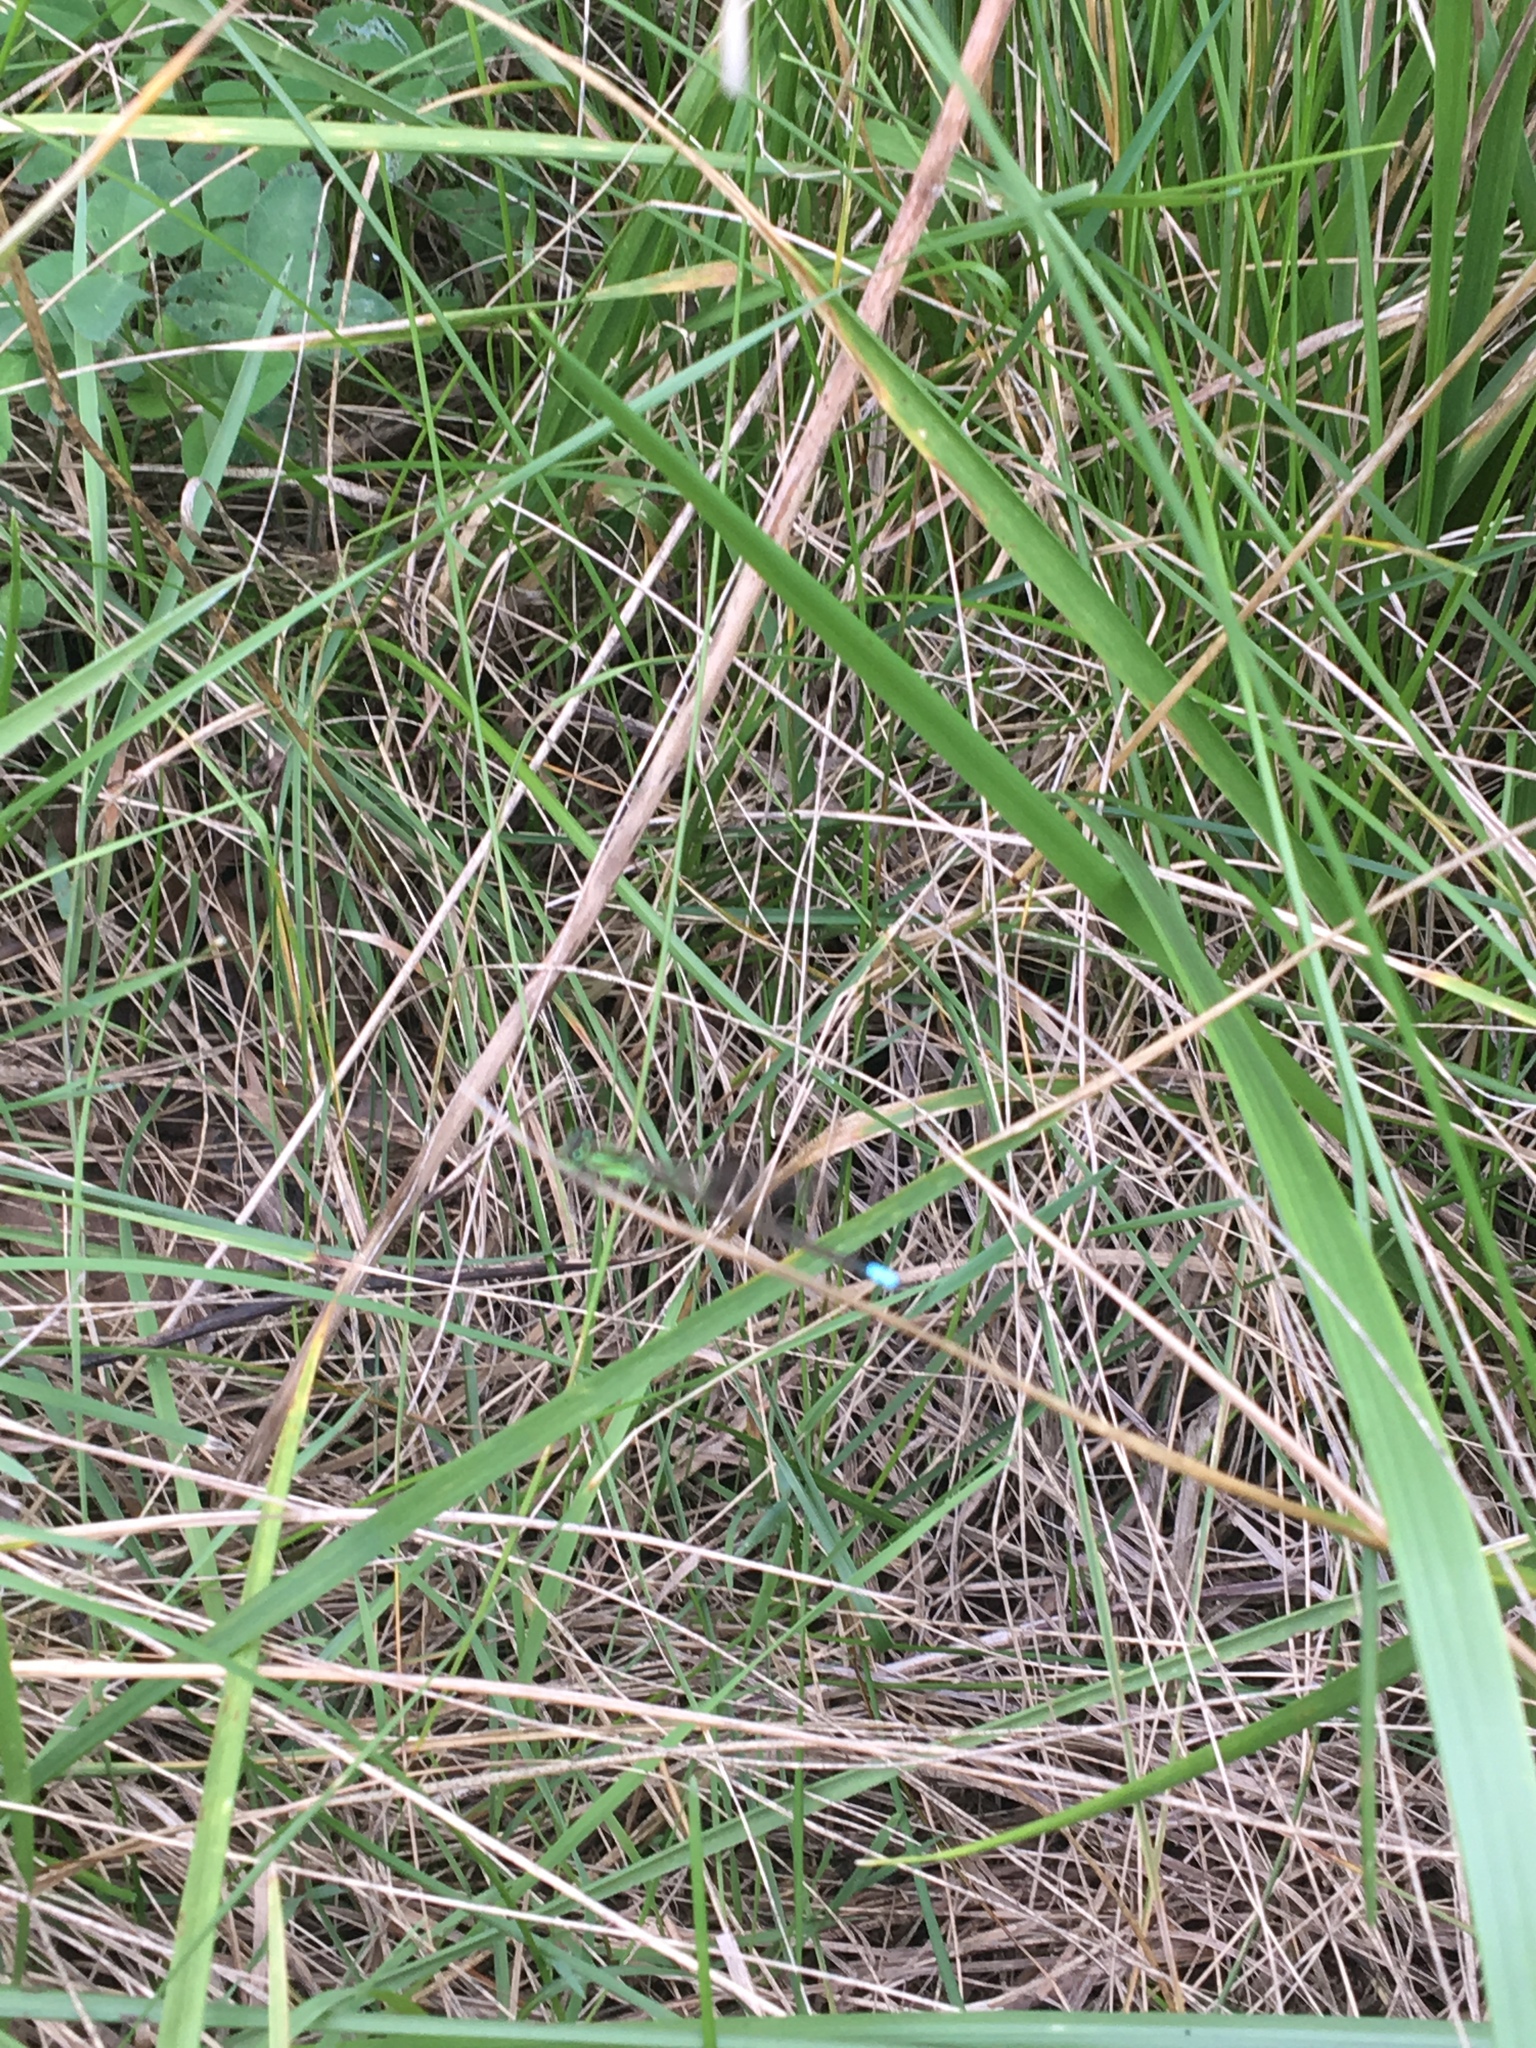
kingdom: Animalia
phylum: Arthropoda
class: Insecta
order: Odonata
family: Coenagrionidae
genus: Ischnura
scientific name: Ischnura verticalis
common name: Eastern forktail
